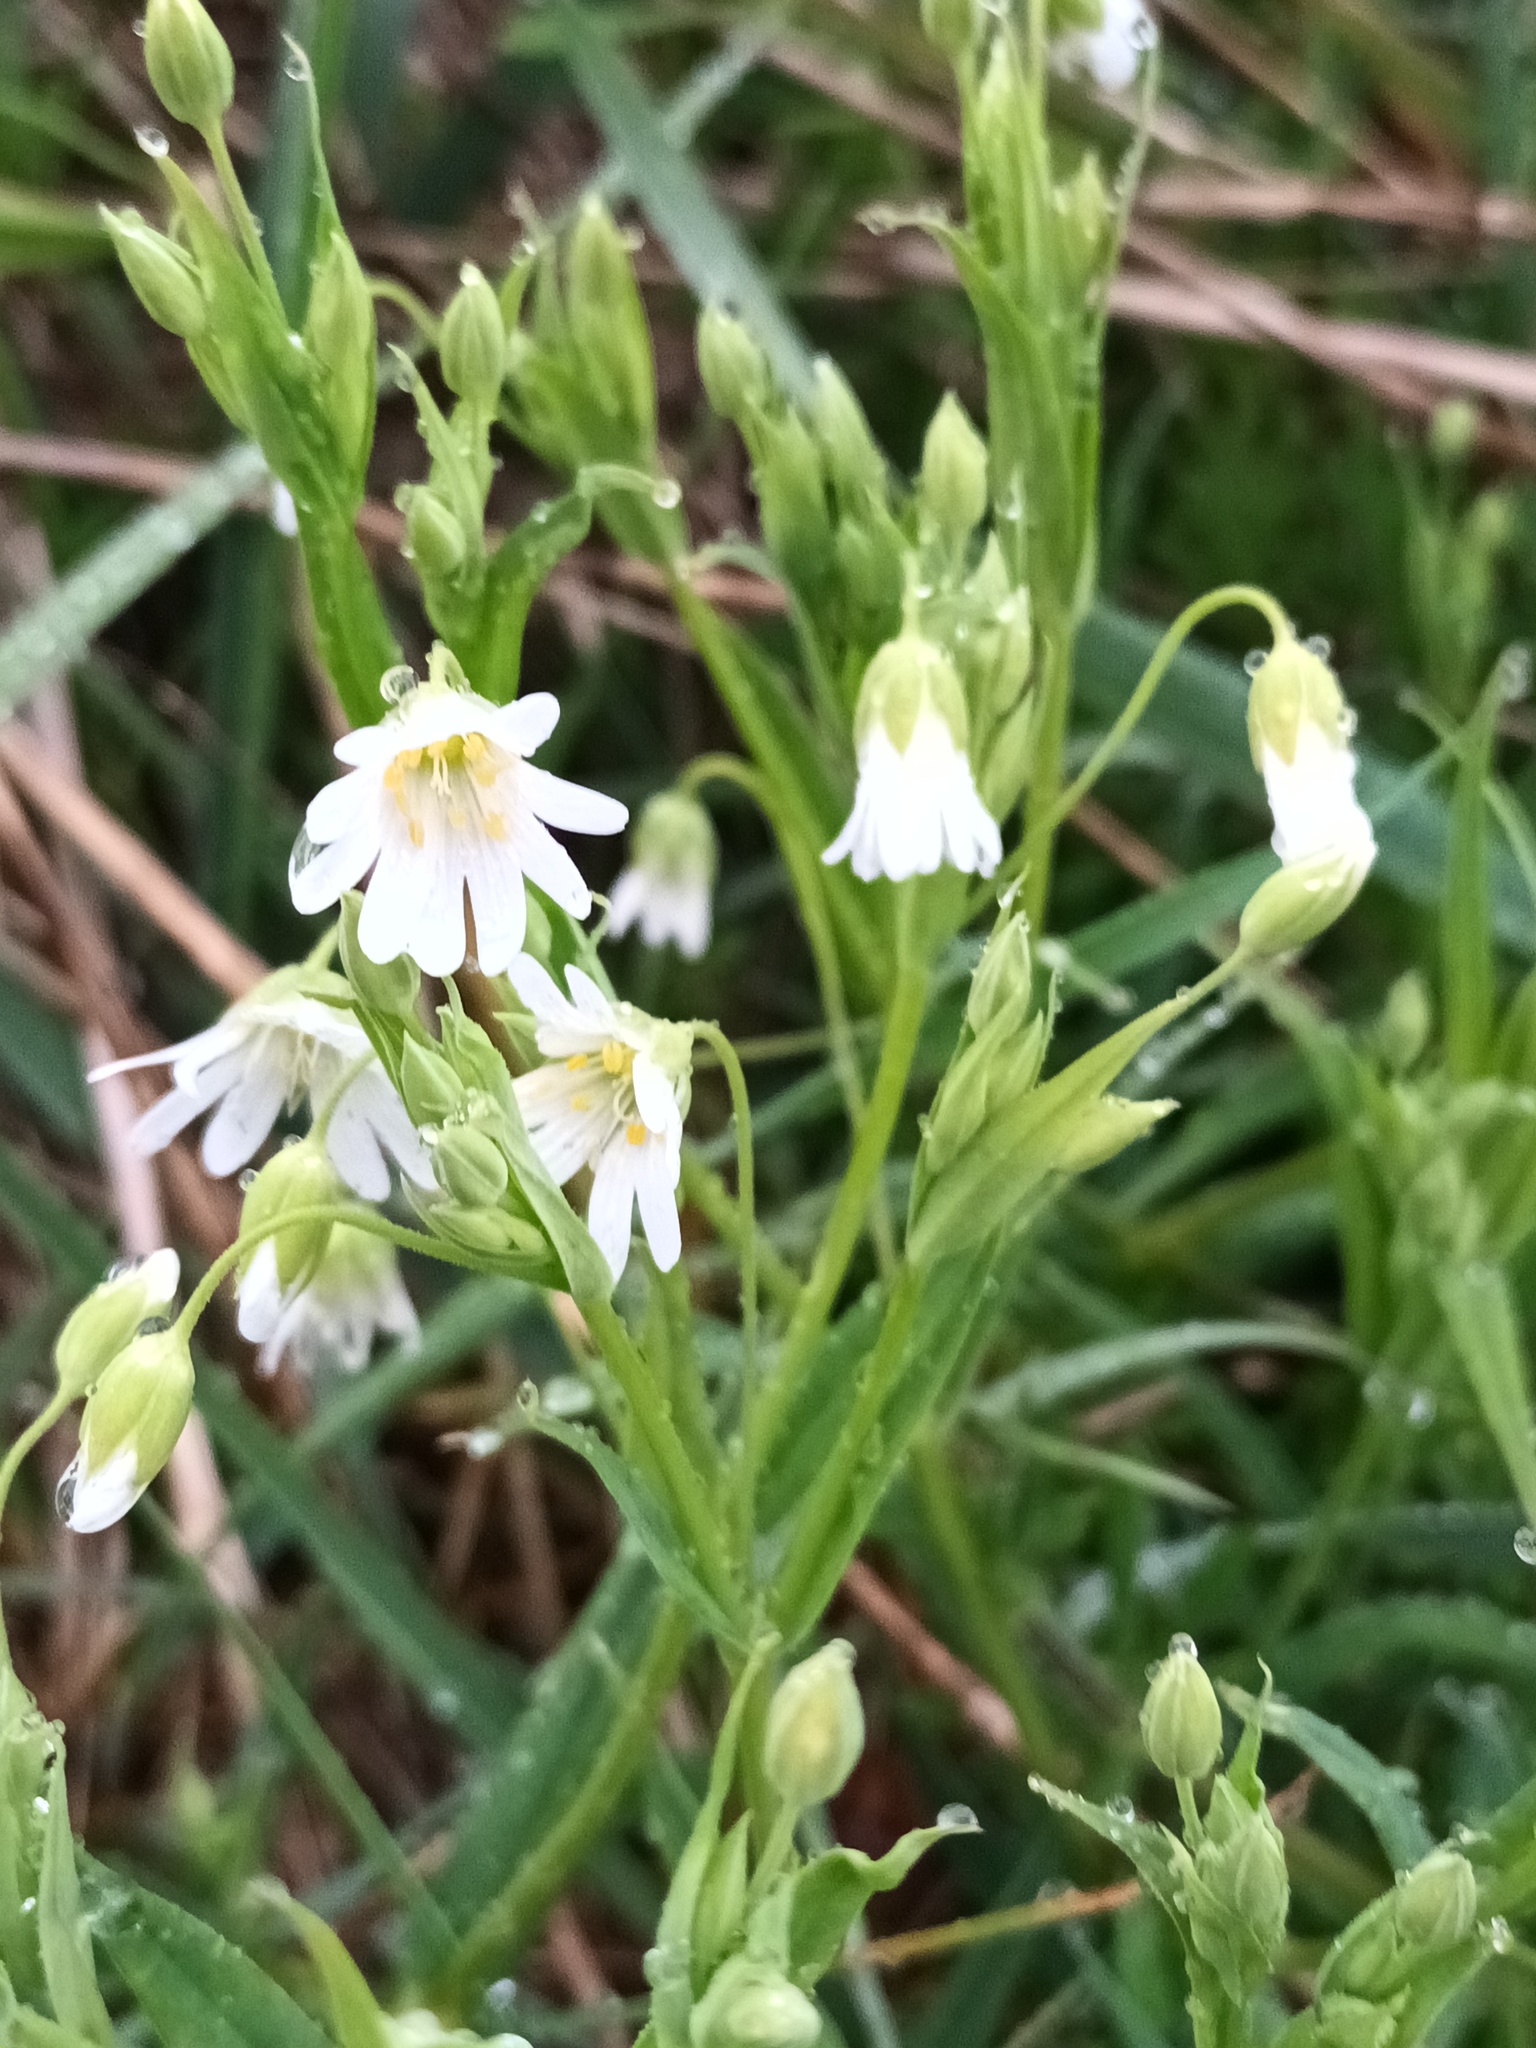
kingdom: Plantae
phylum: Tracheophyta
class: Magnoliopsida
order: Caryophyllales
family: Caryophyllaceae
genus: Rabelera
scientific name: Rabelera holostea
